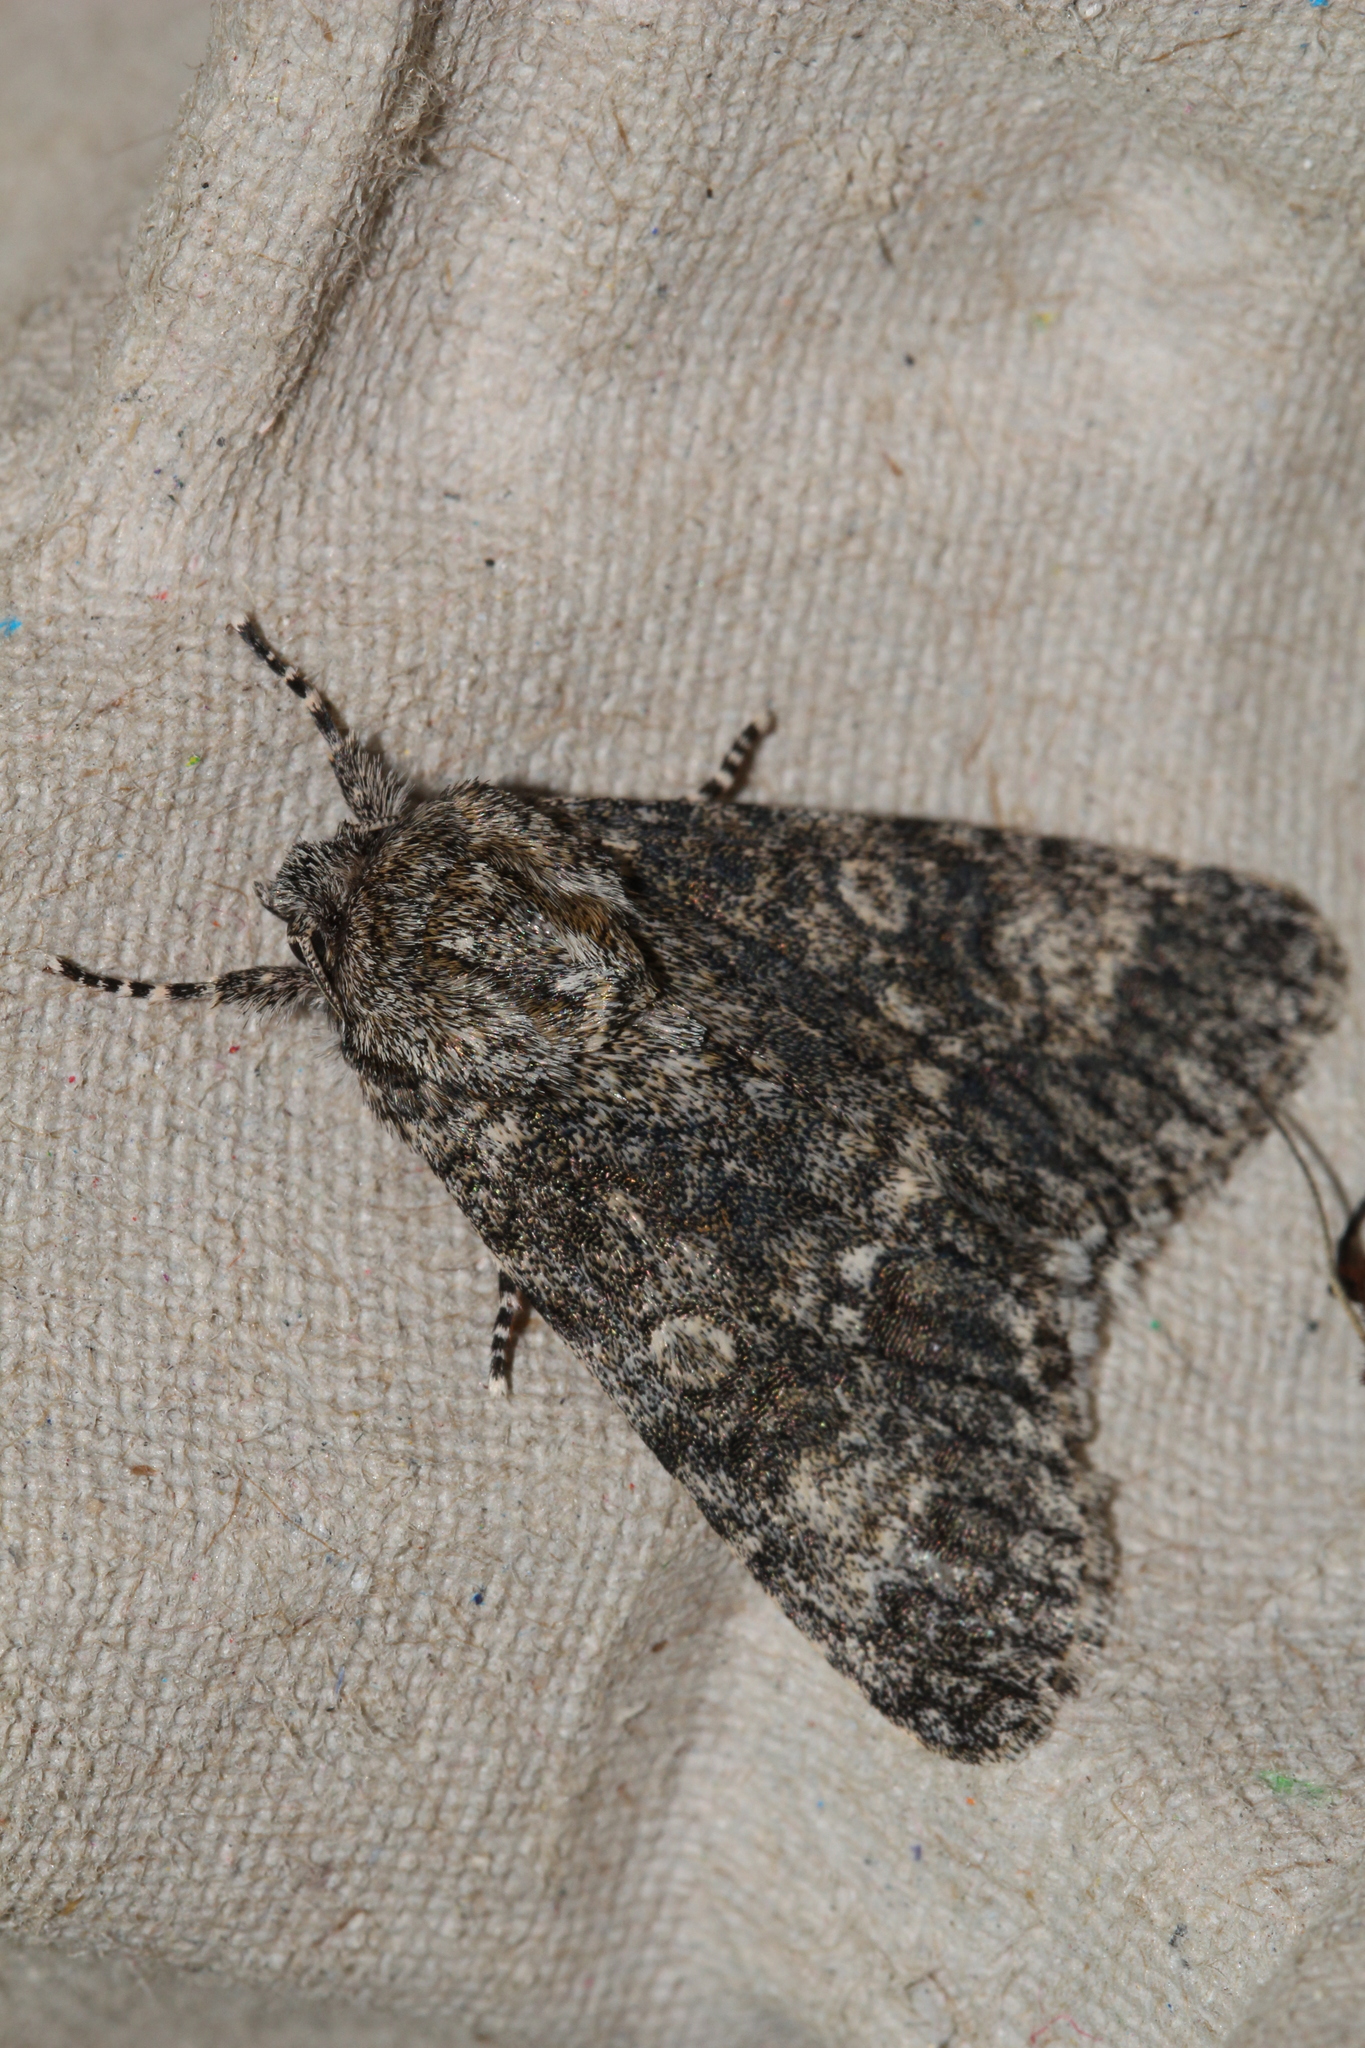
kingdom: Animalia
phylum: Arthropoda
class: Insecta
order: Lepidoptera
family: Noctuidae
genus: Acronicta
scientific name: Acronicta megacephala
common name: Poplar grey
